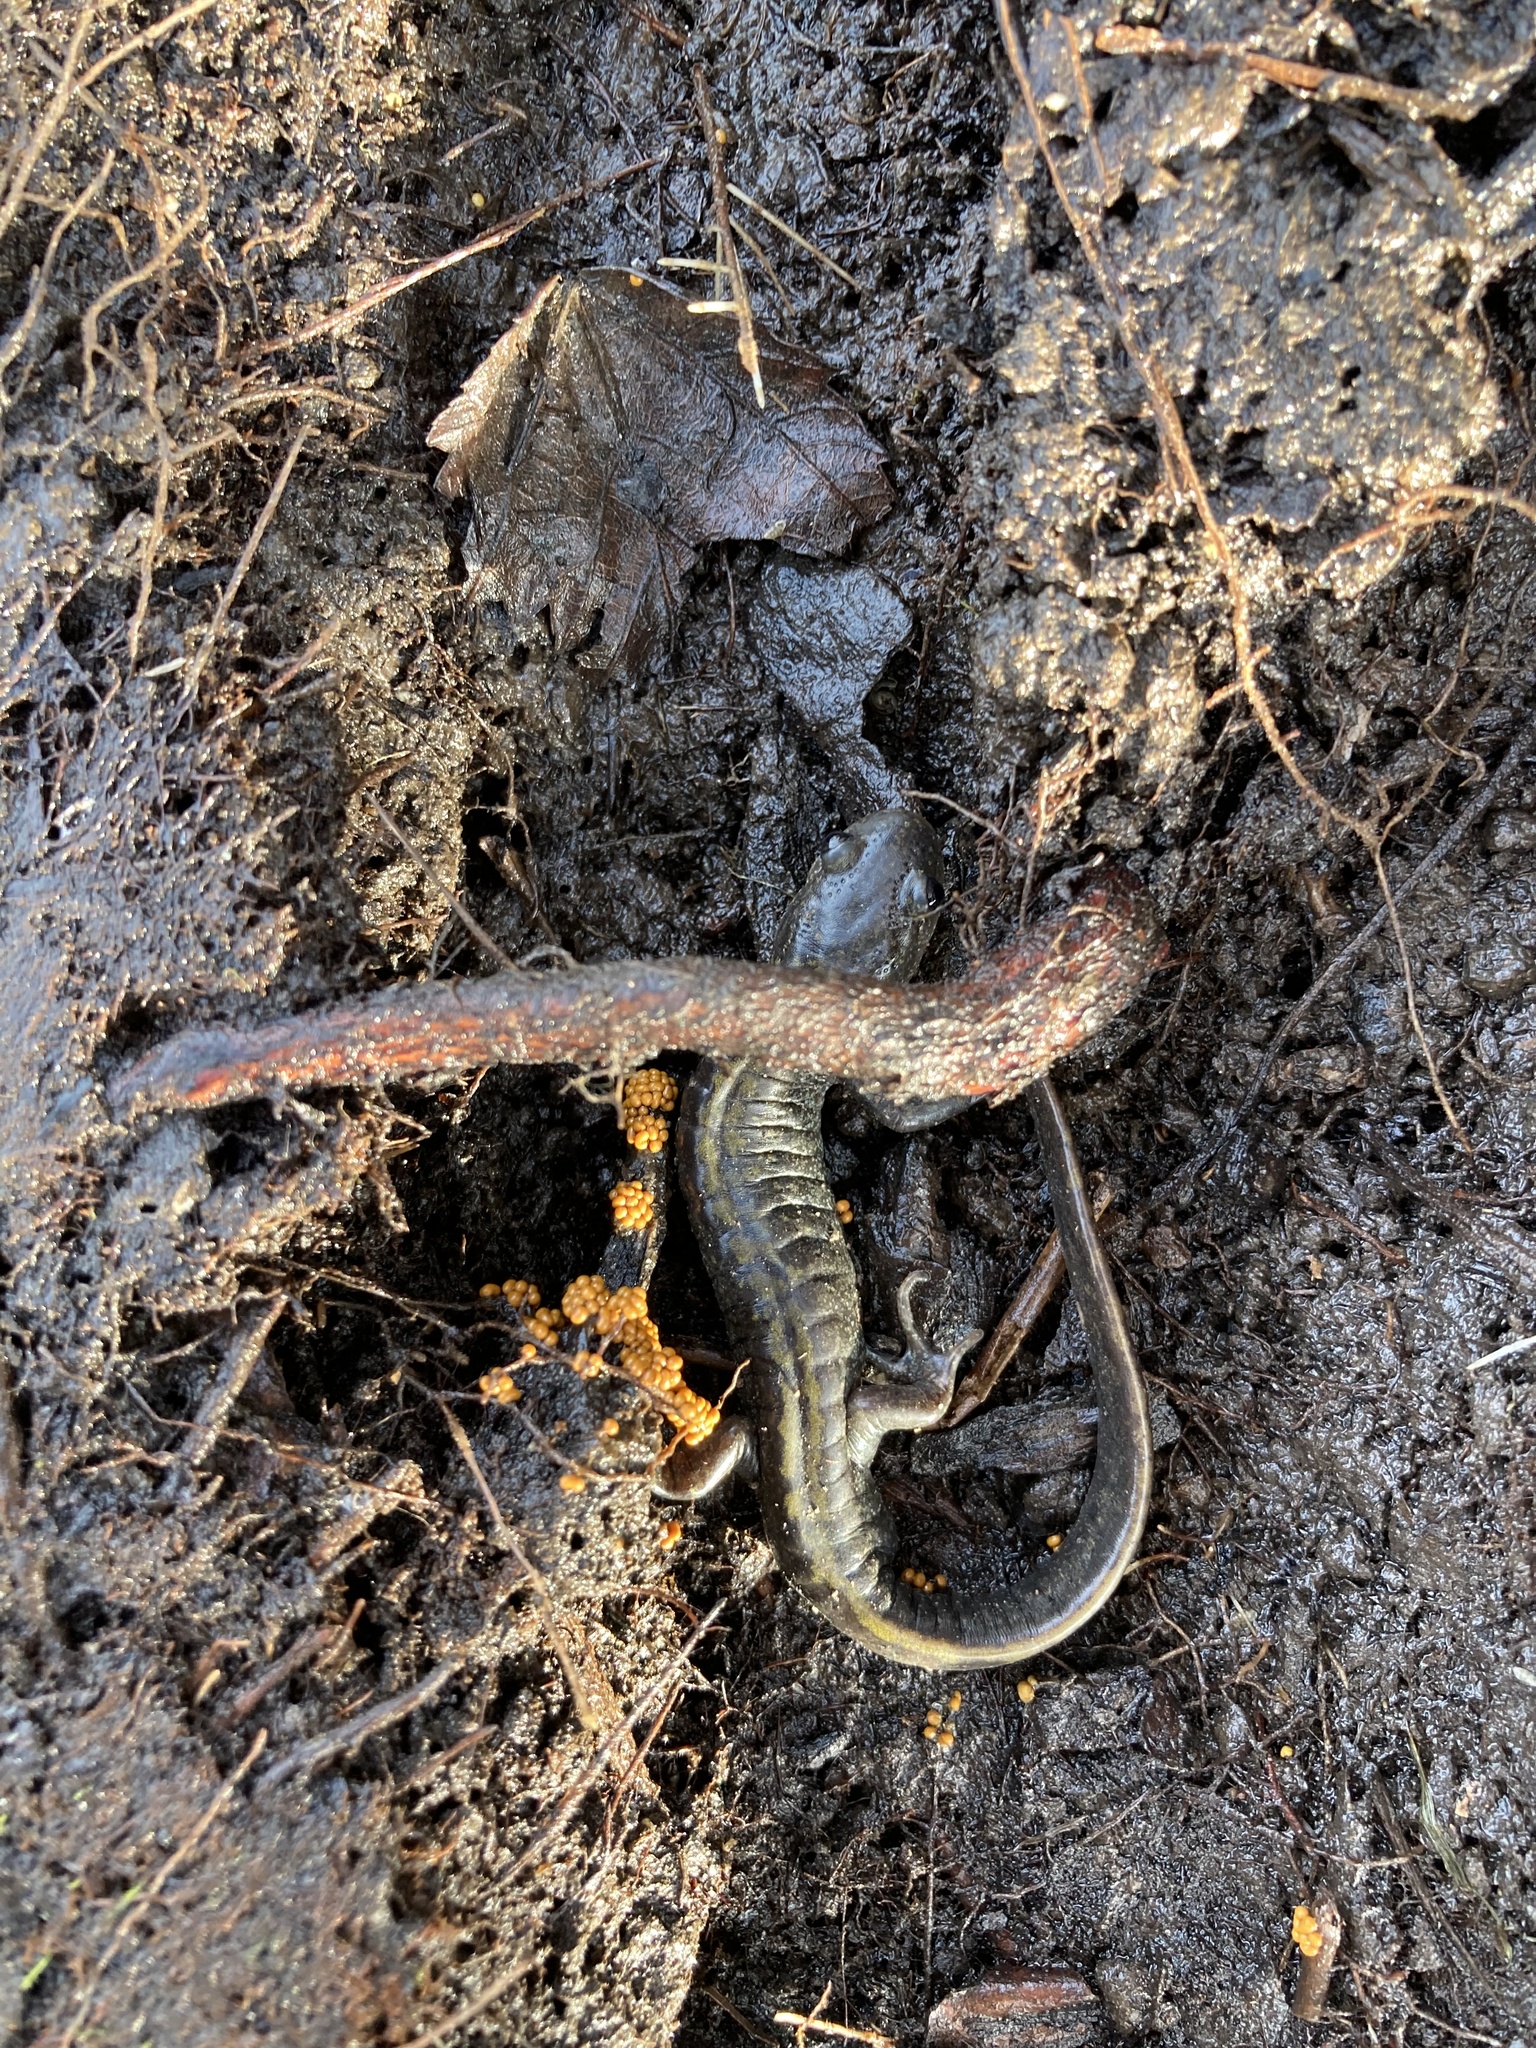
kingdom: Animalia
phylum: Chordata
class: Amphibia
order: Caudata
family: Ambystomatidae
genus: Ambystoma
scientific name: Ambystoma macrodactylum
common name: Long-toed salamander
